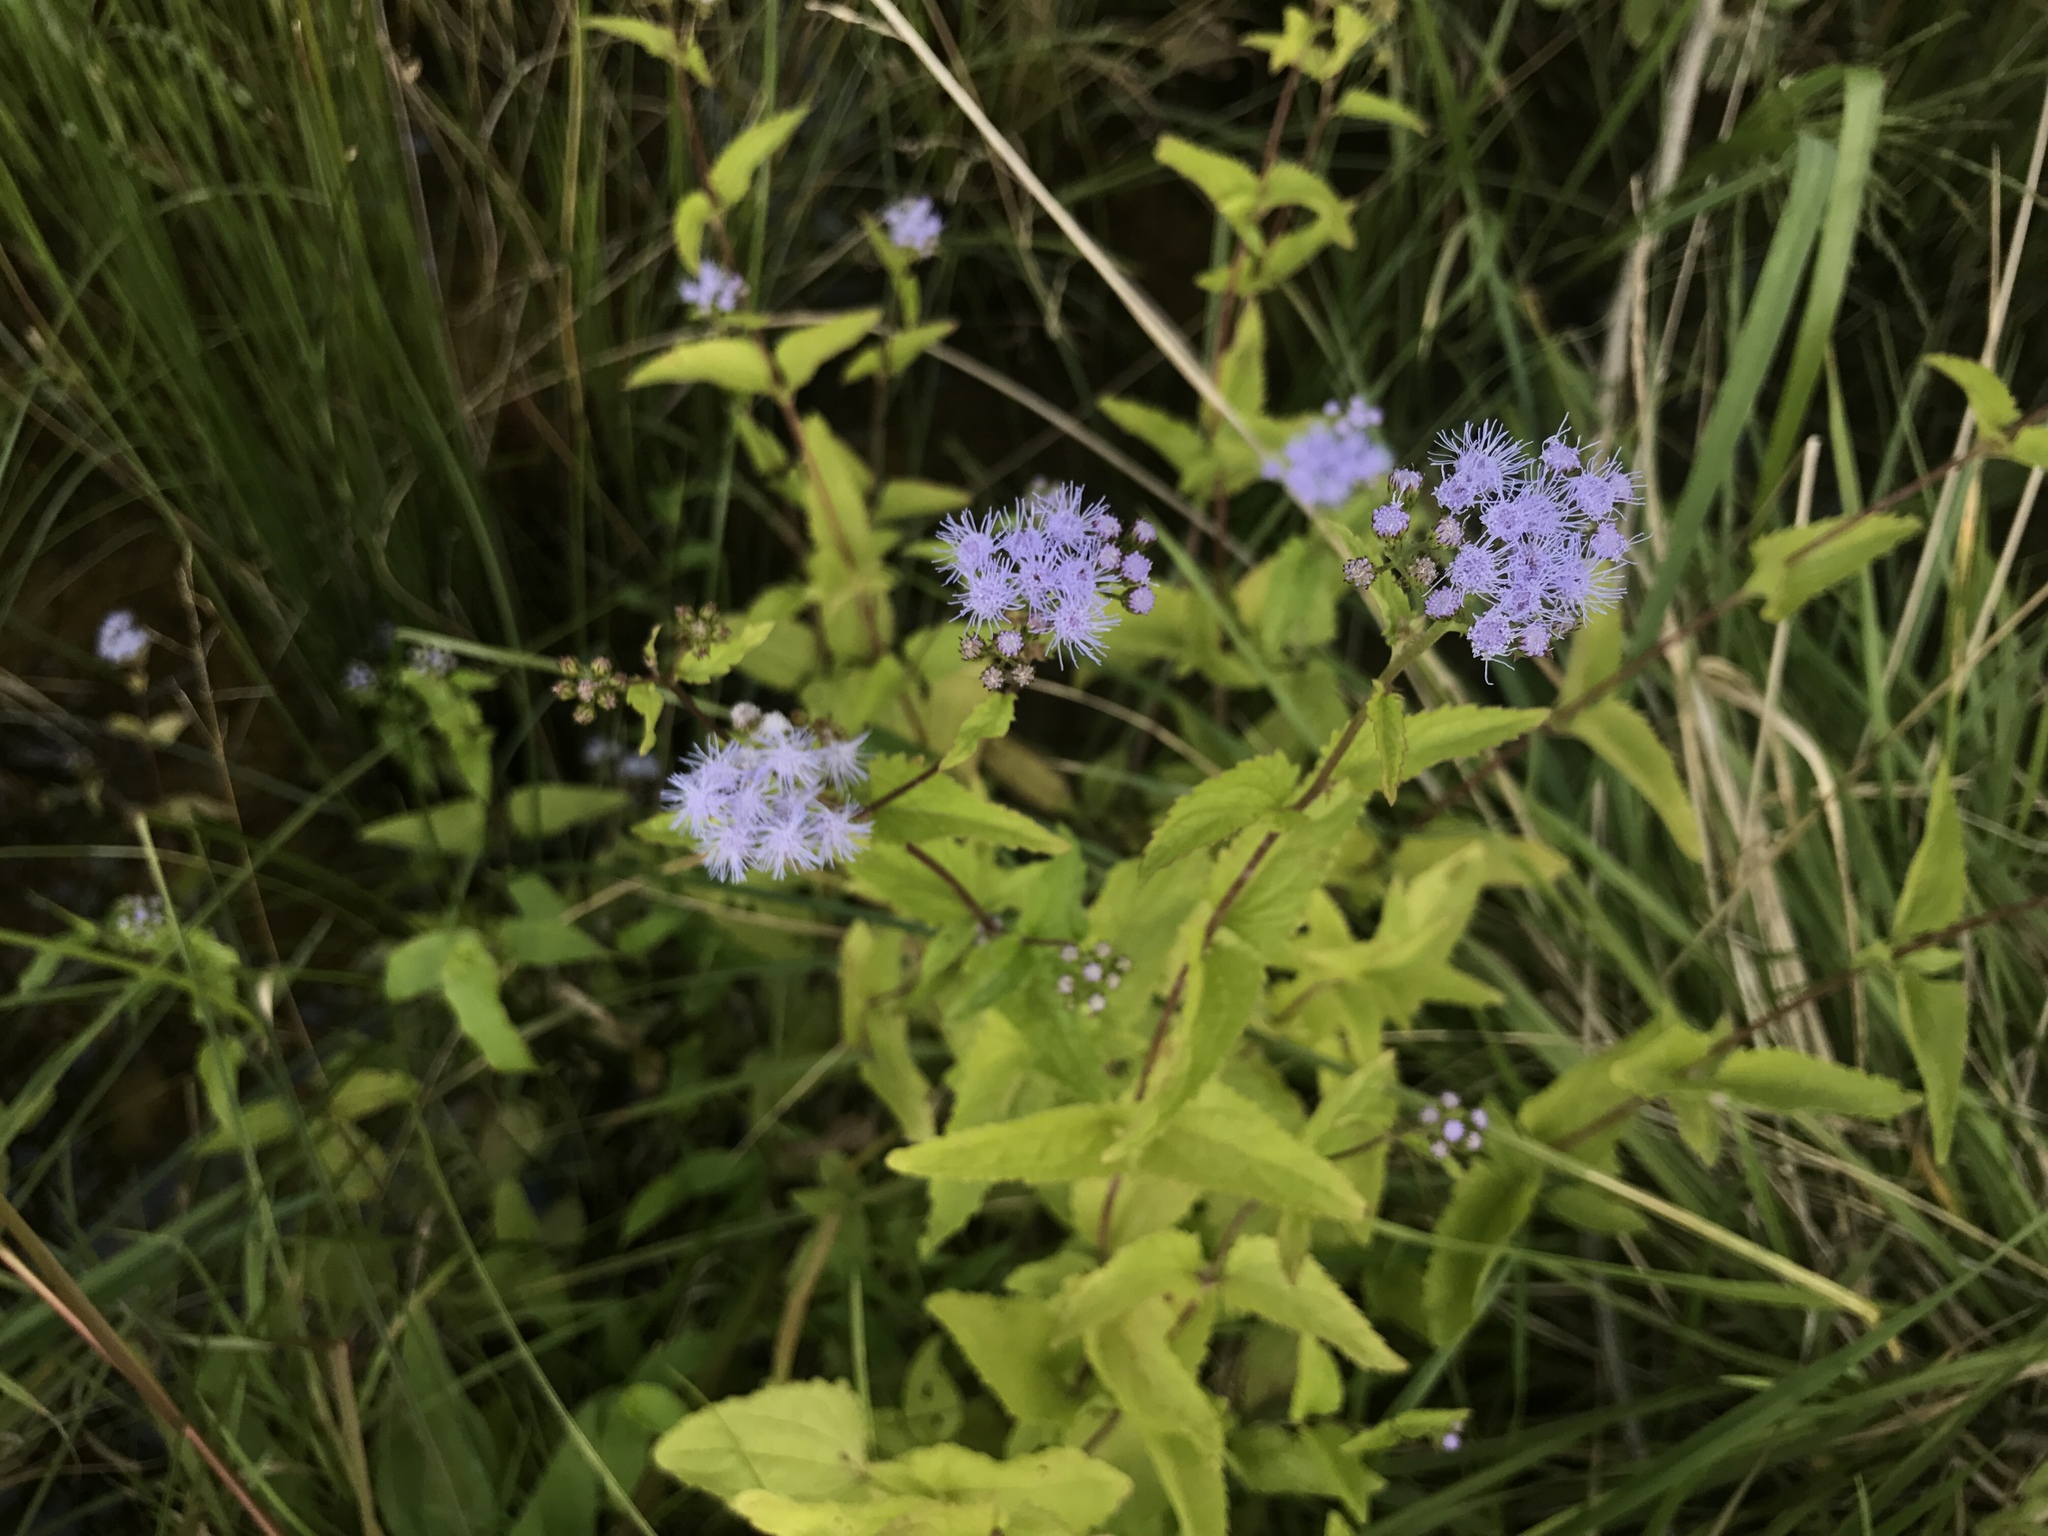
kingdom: Plantae
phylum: Tracheophyta
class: Magnoliopsida
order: Asterales
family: Asteraceae
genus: Conoclinium
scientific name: Conoclinium coelestinum
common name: Blue mistflower
